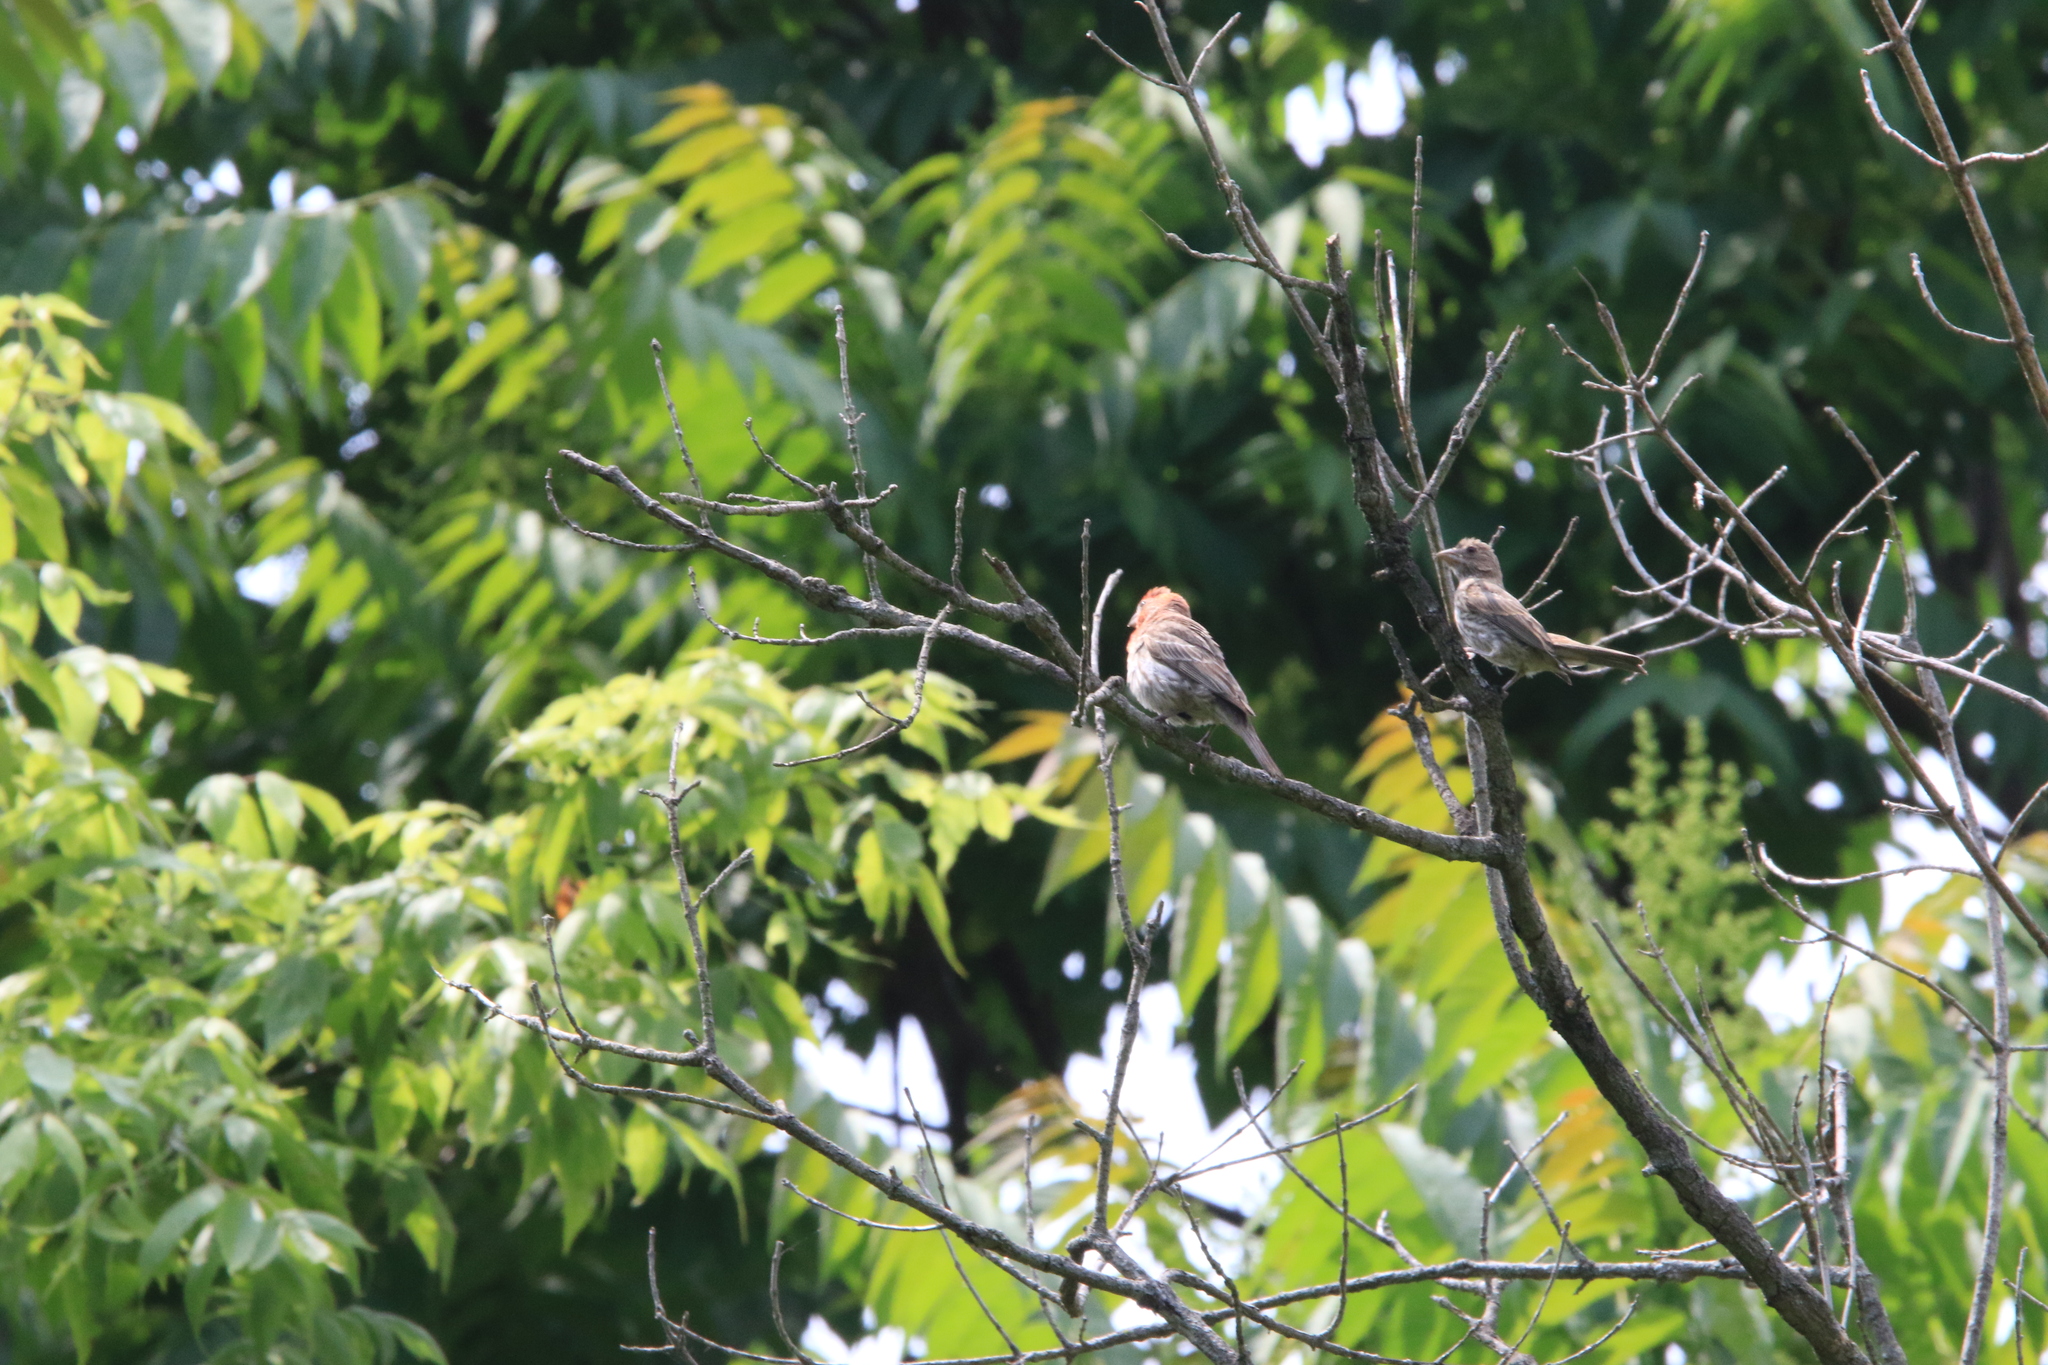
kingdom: Animalia
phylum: Chordata
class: Aves
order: Passeriformes
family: Fringillidae
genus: Haemorhous
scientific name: Haemorhous mexicanus
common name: House finch
